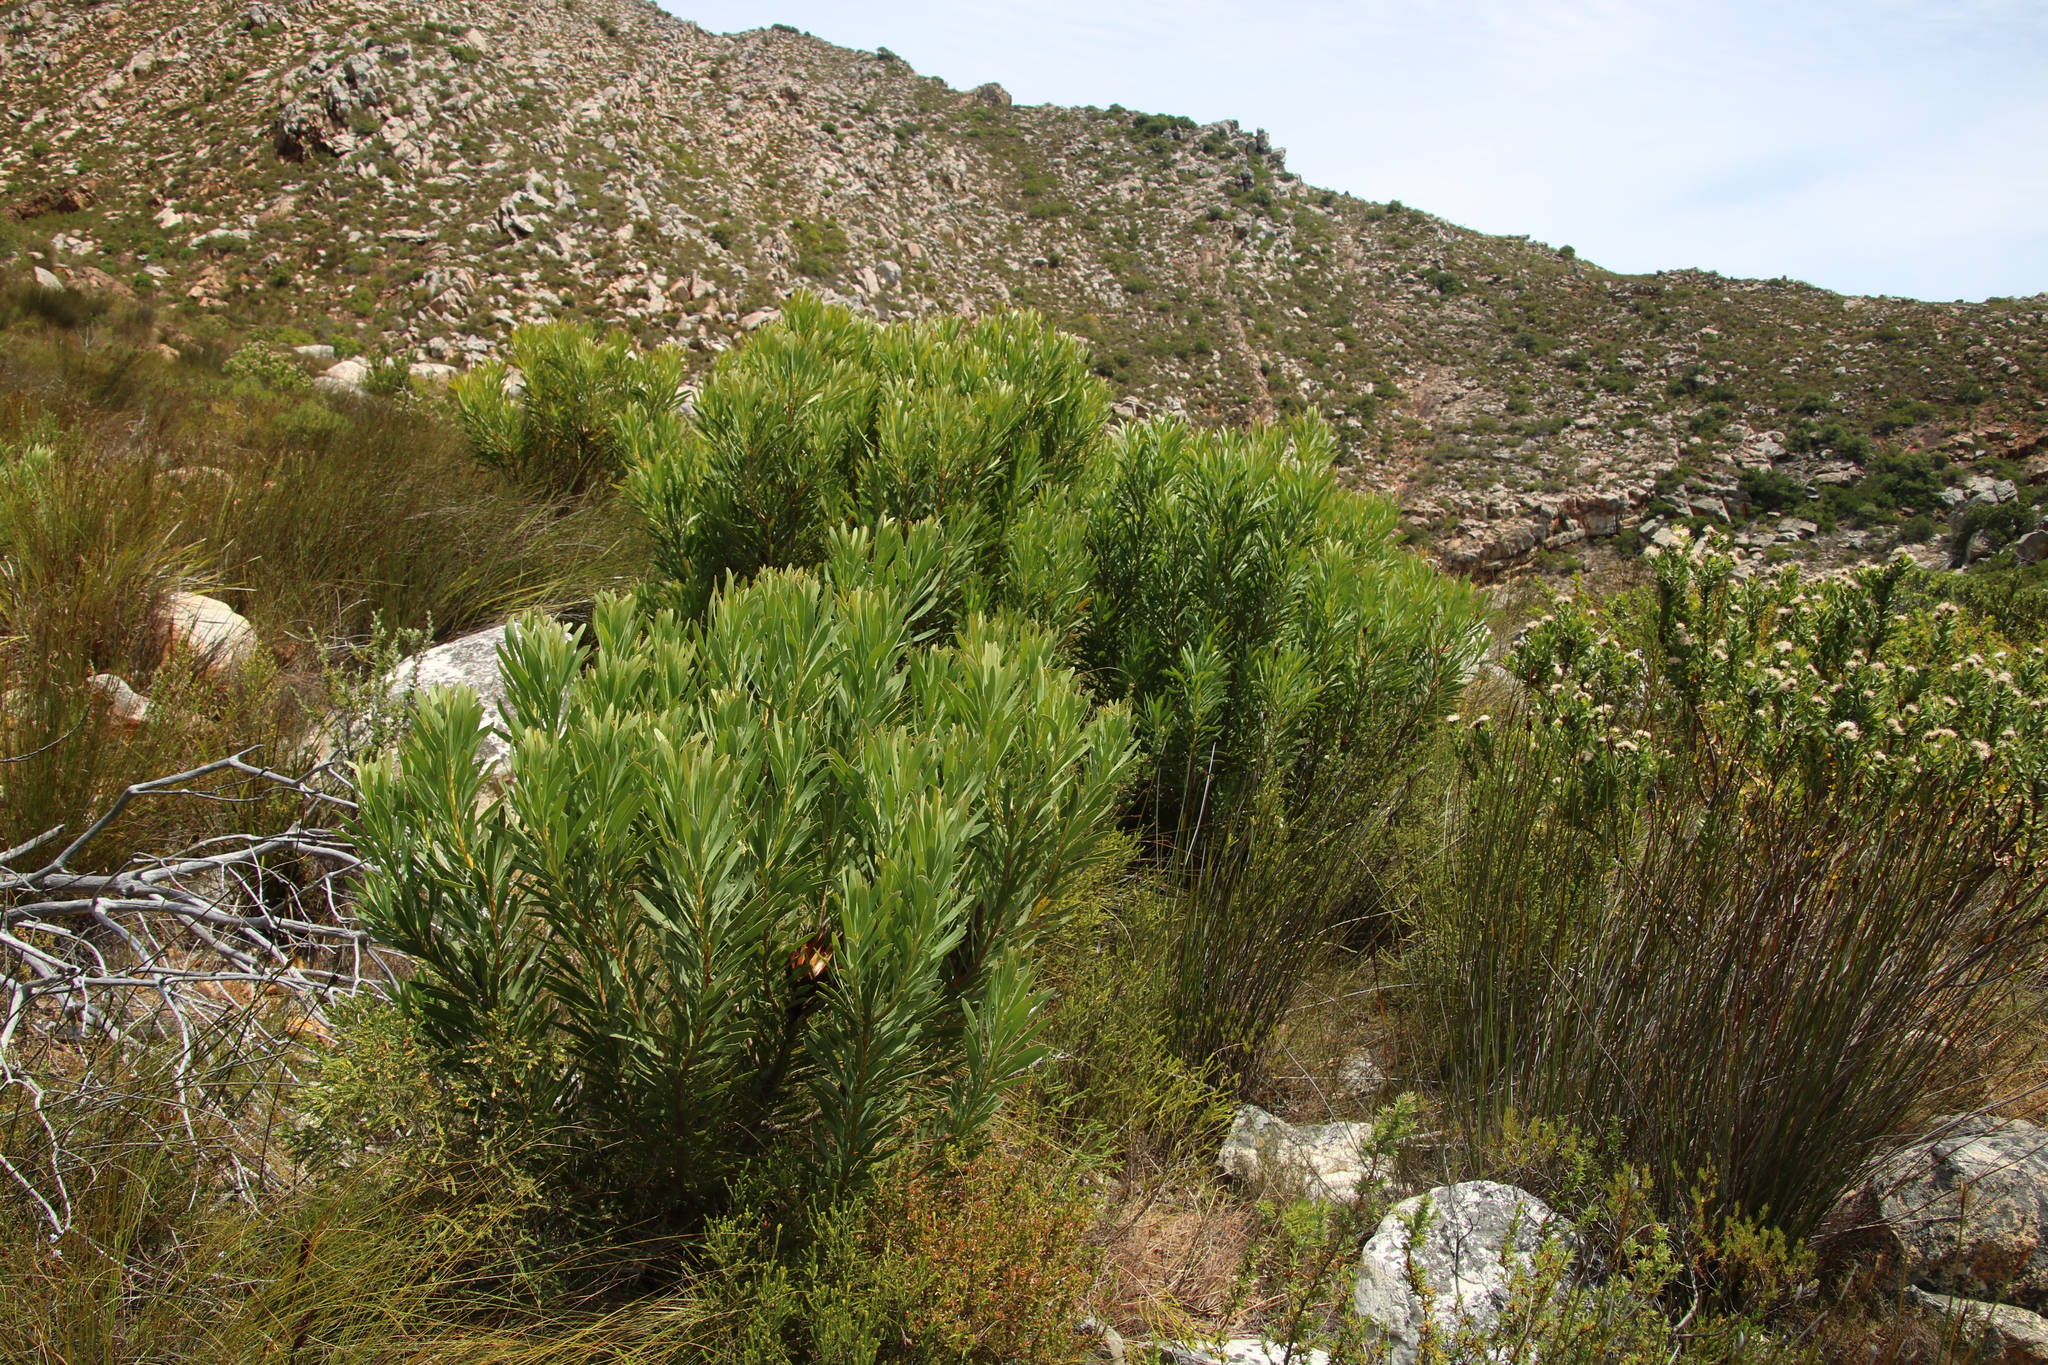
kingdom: Plantae
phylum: Tracheophyta
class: Magnoliopsida
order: Proteales
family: Proteaceae
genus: Protea
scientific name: Protea repens
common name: Sugarbush
